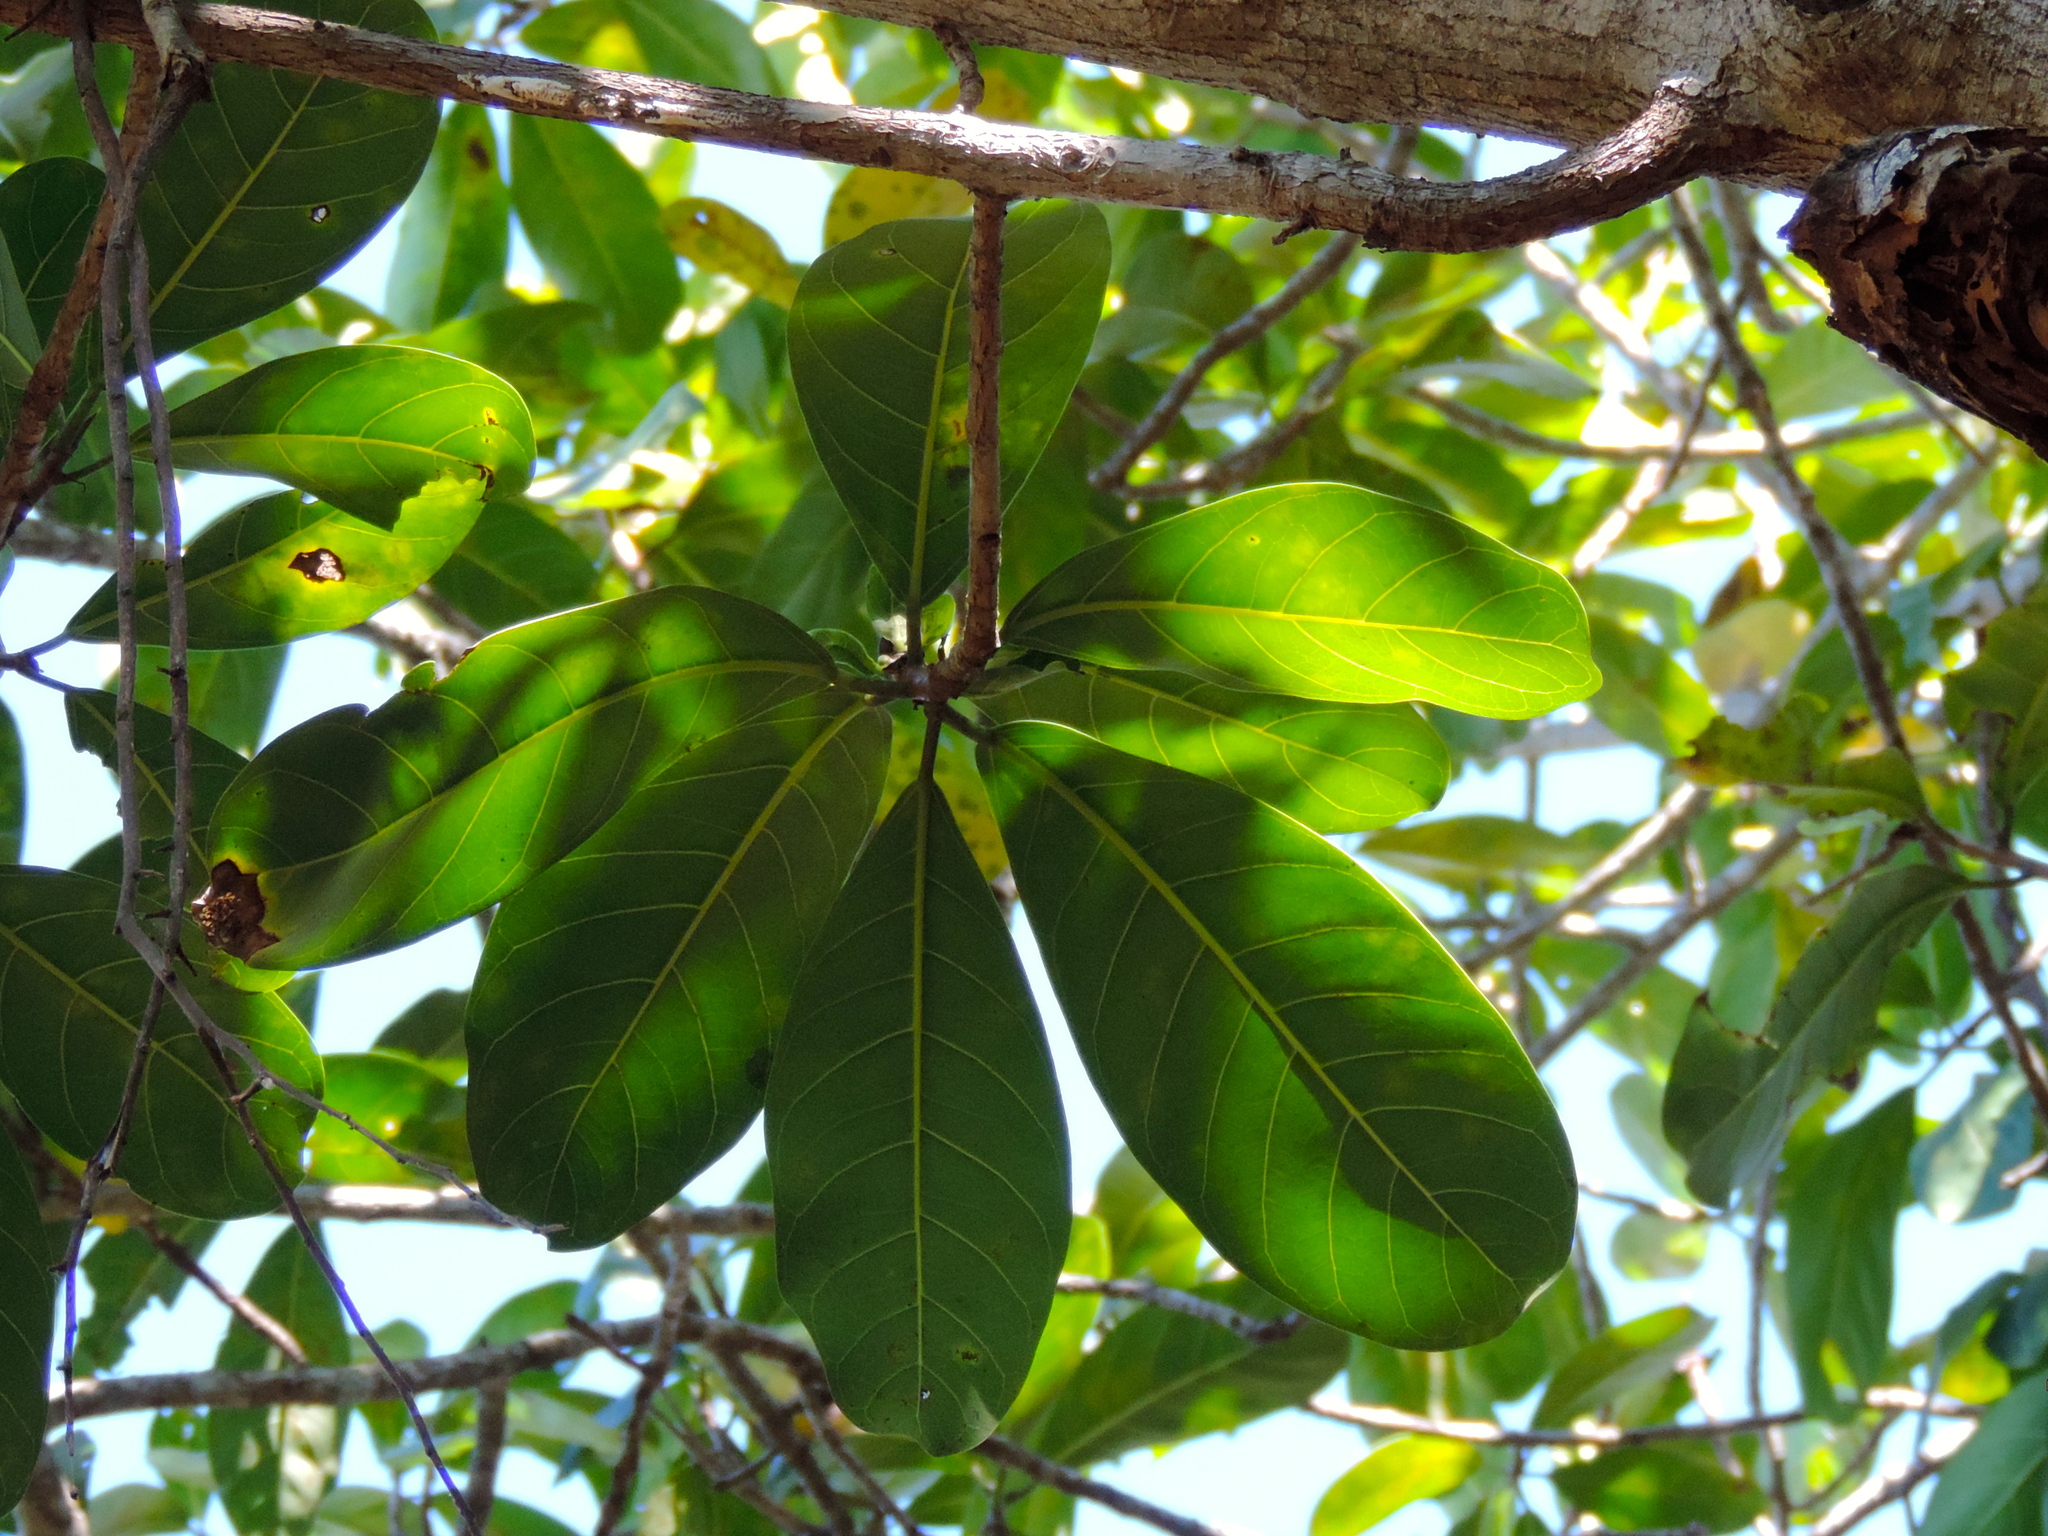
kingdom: Plantae
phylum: Tracheophyta
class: Magnoliopsida
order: Rosales
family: Moraceae
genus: Ficus
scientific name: Ficus cotinifolia
